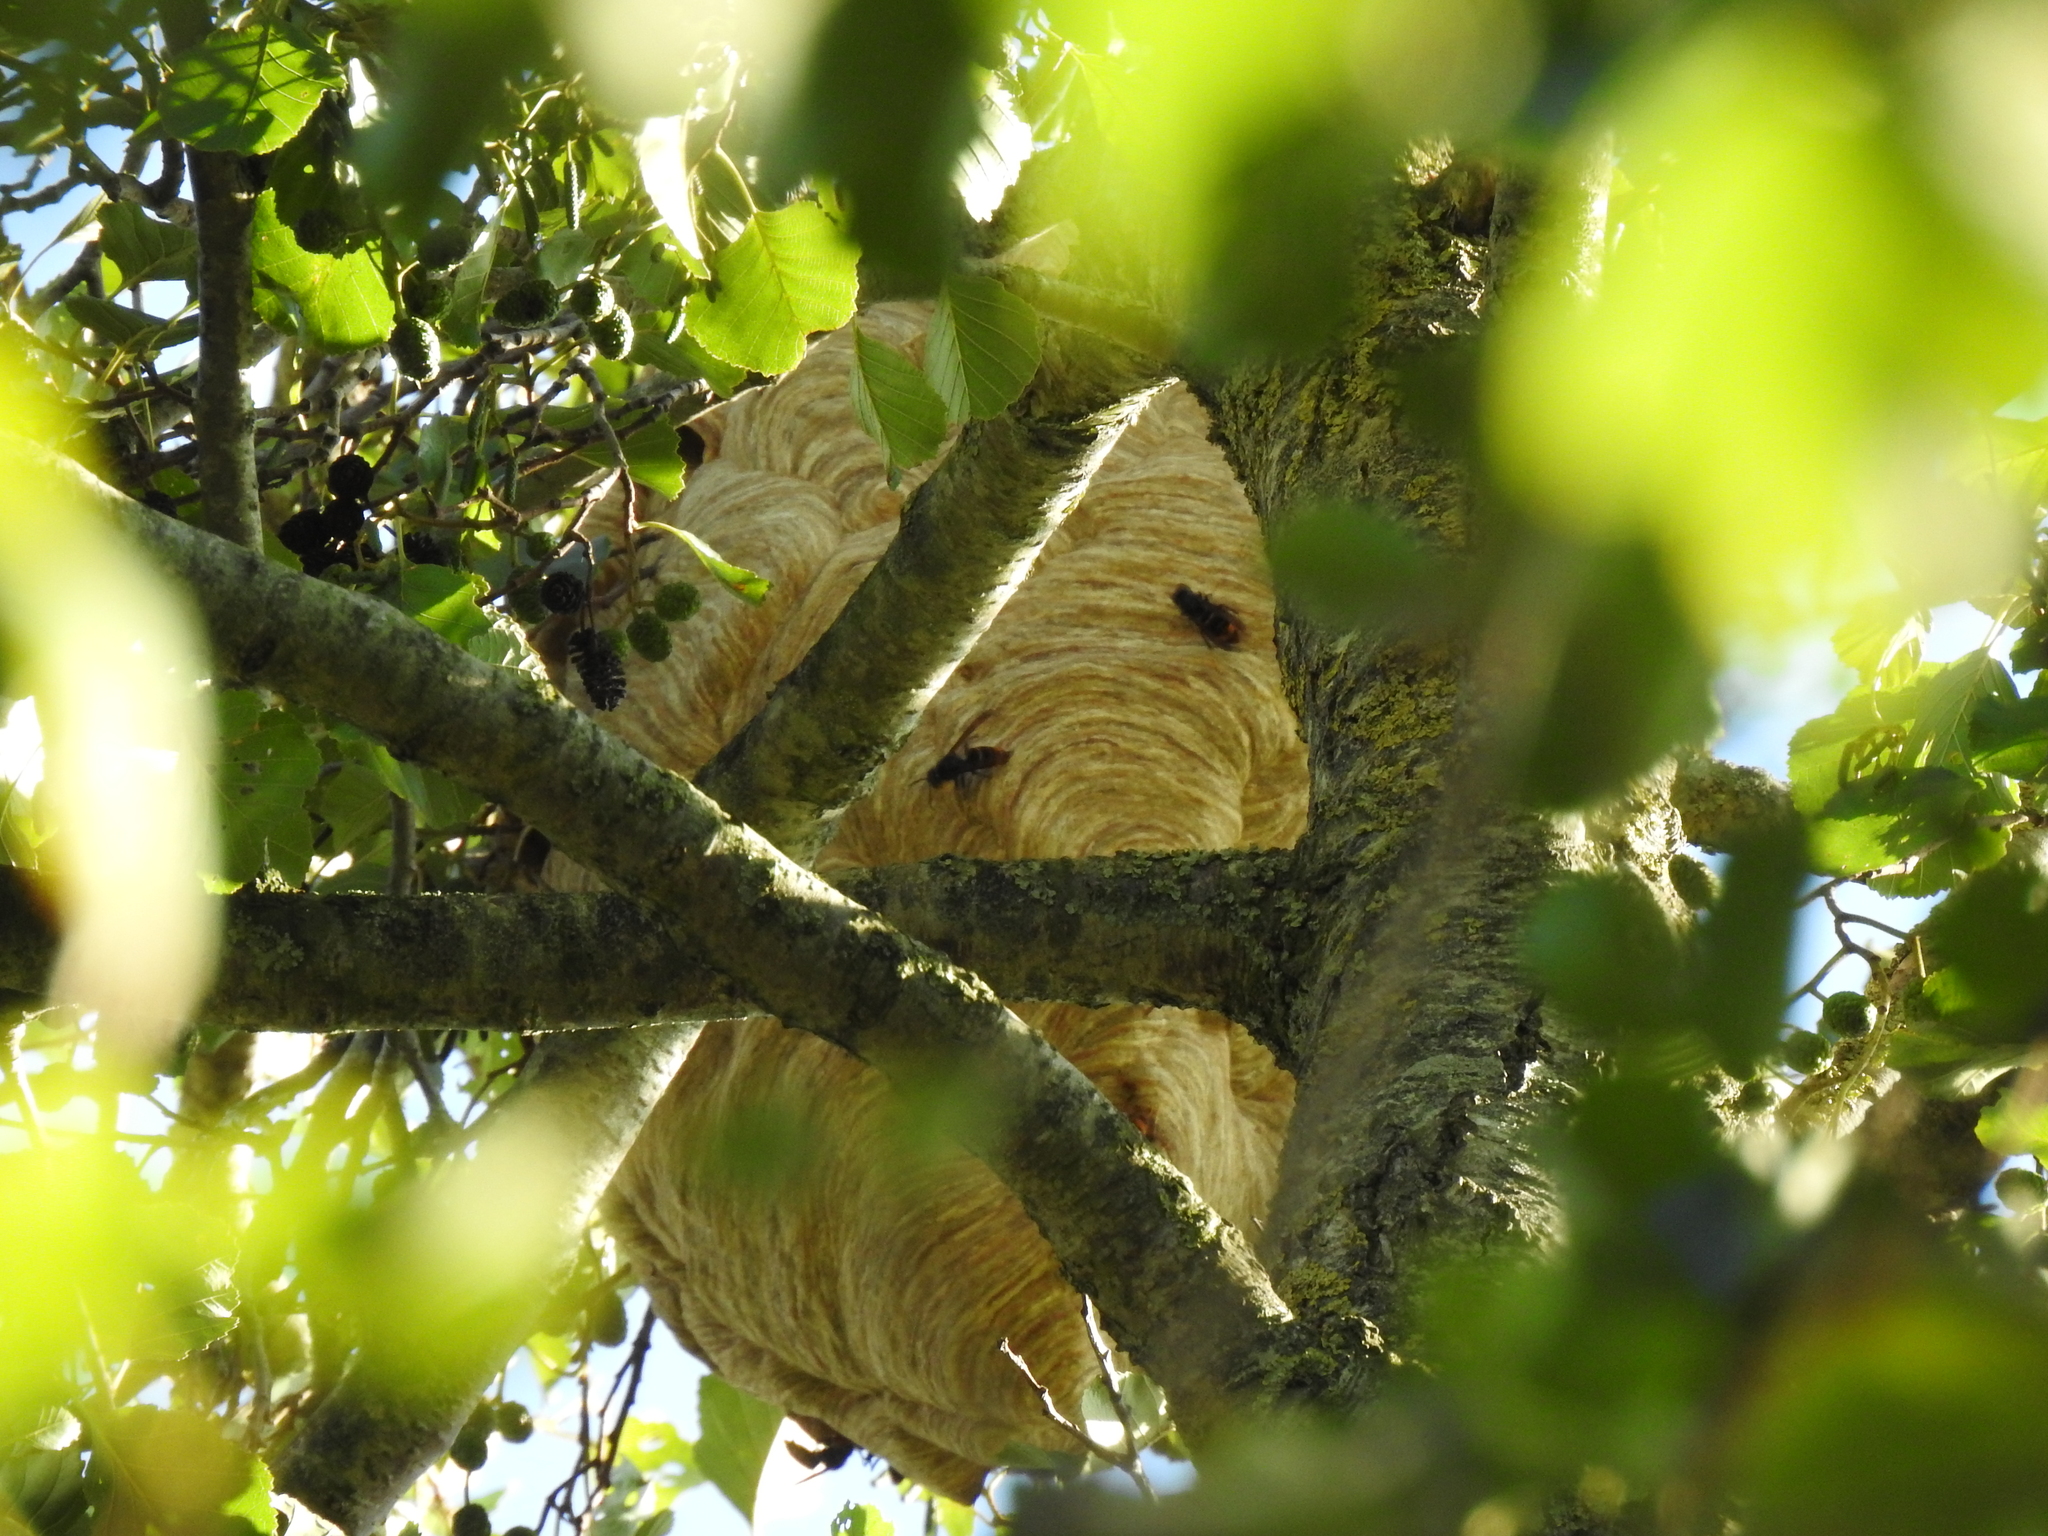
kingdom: Animalia
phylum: Arthropoda
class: Insecta
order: Hymenoptera
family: Vespidae
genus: Vespa
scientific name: Vespa velutina
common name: Asian hornet
